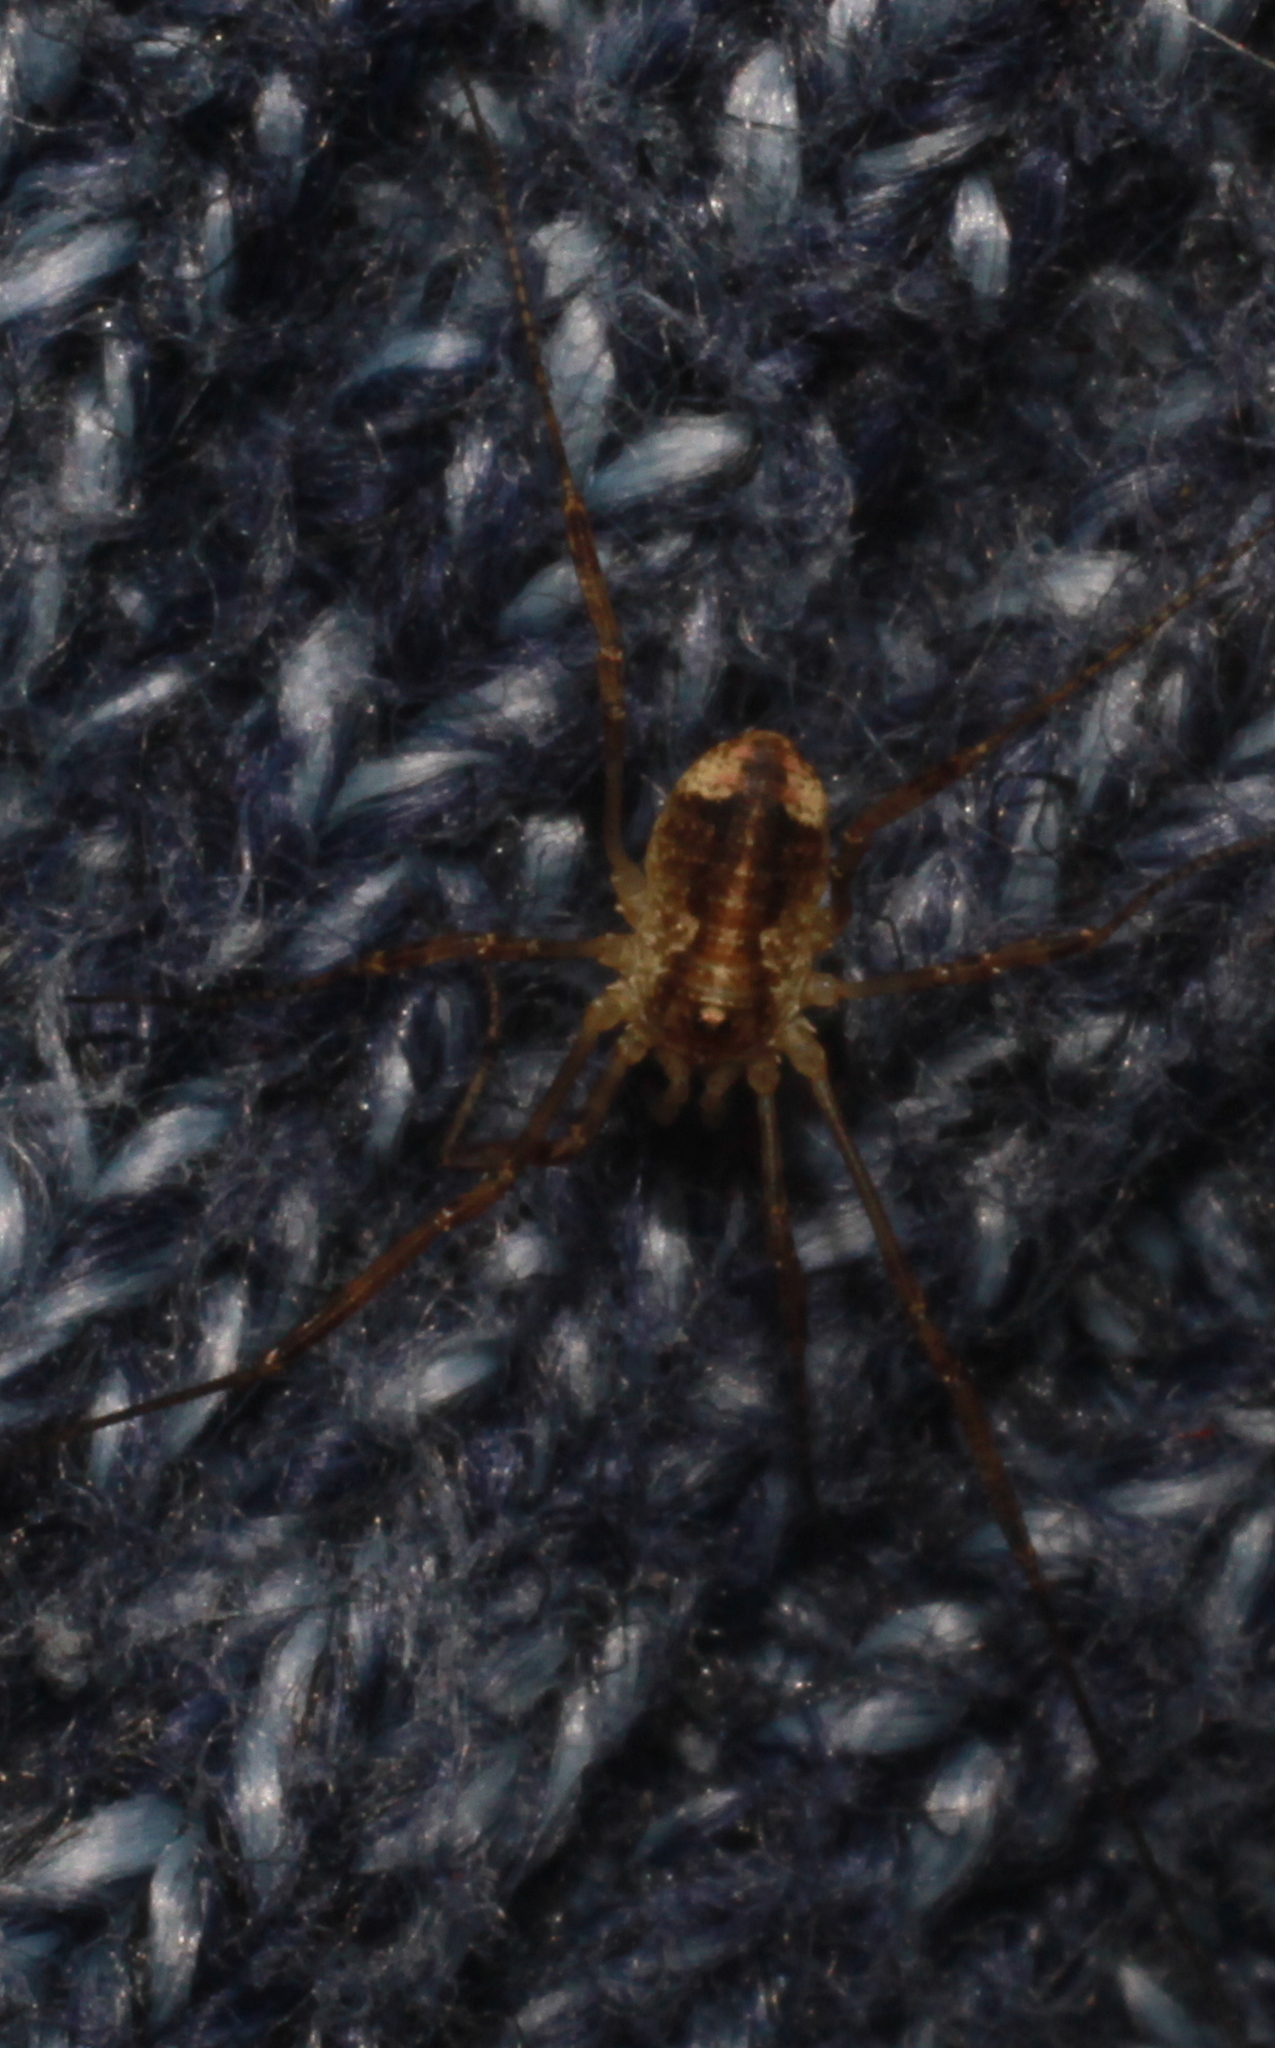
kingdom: Animalia
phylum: Arthropoda
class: Arachnida
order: Opiliones
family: Phalangiidae
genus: Paroligolophus
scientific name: Paroligolophus agrestis
